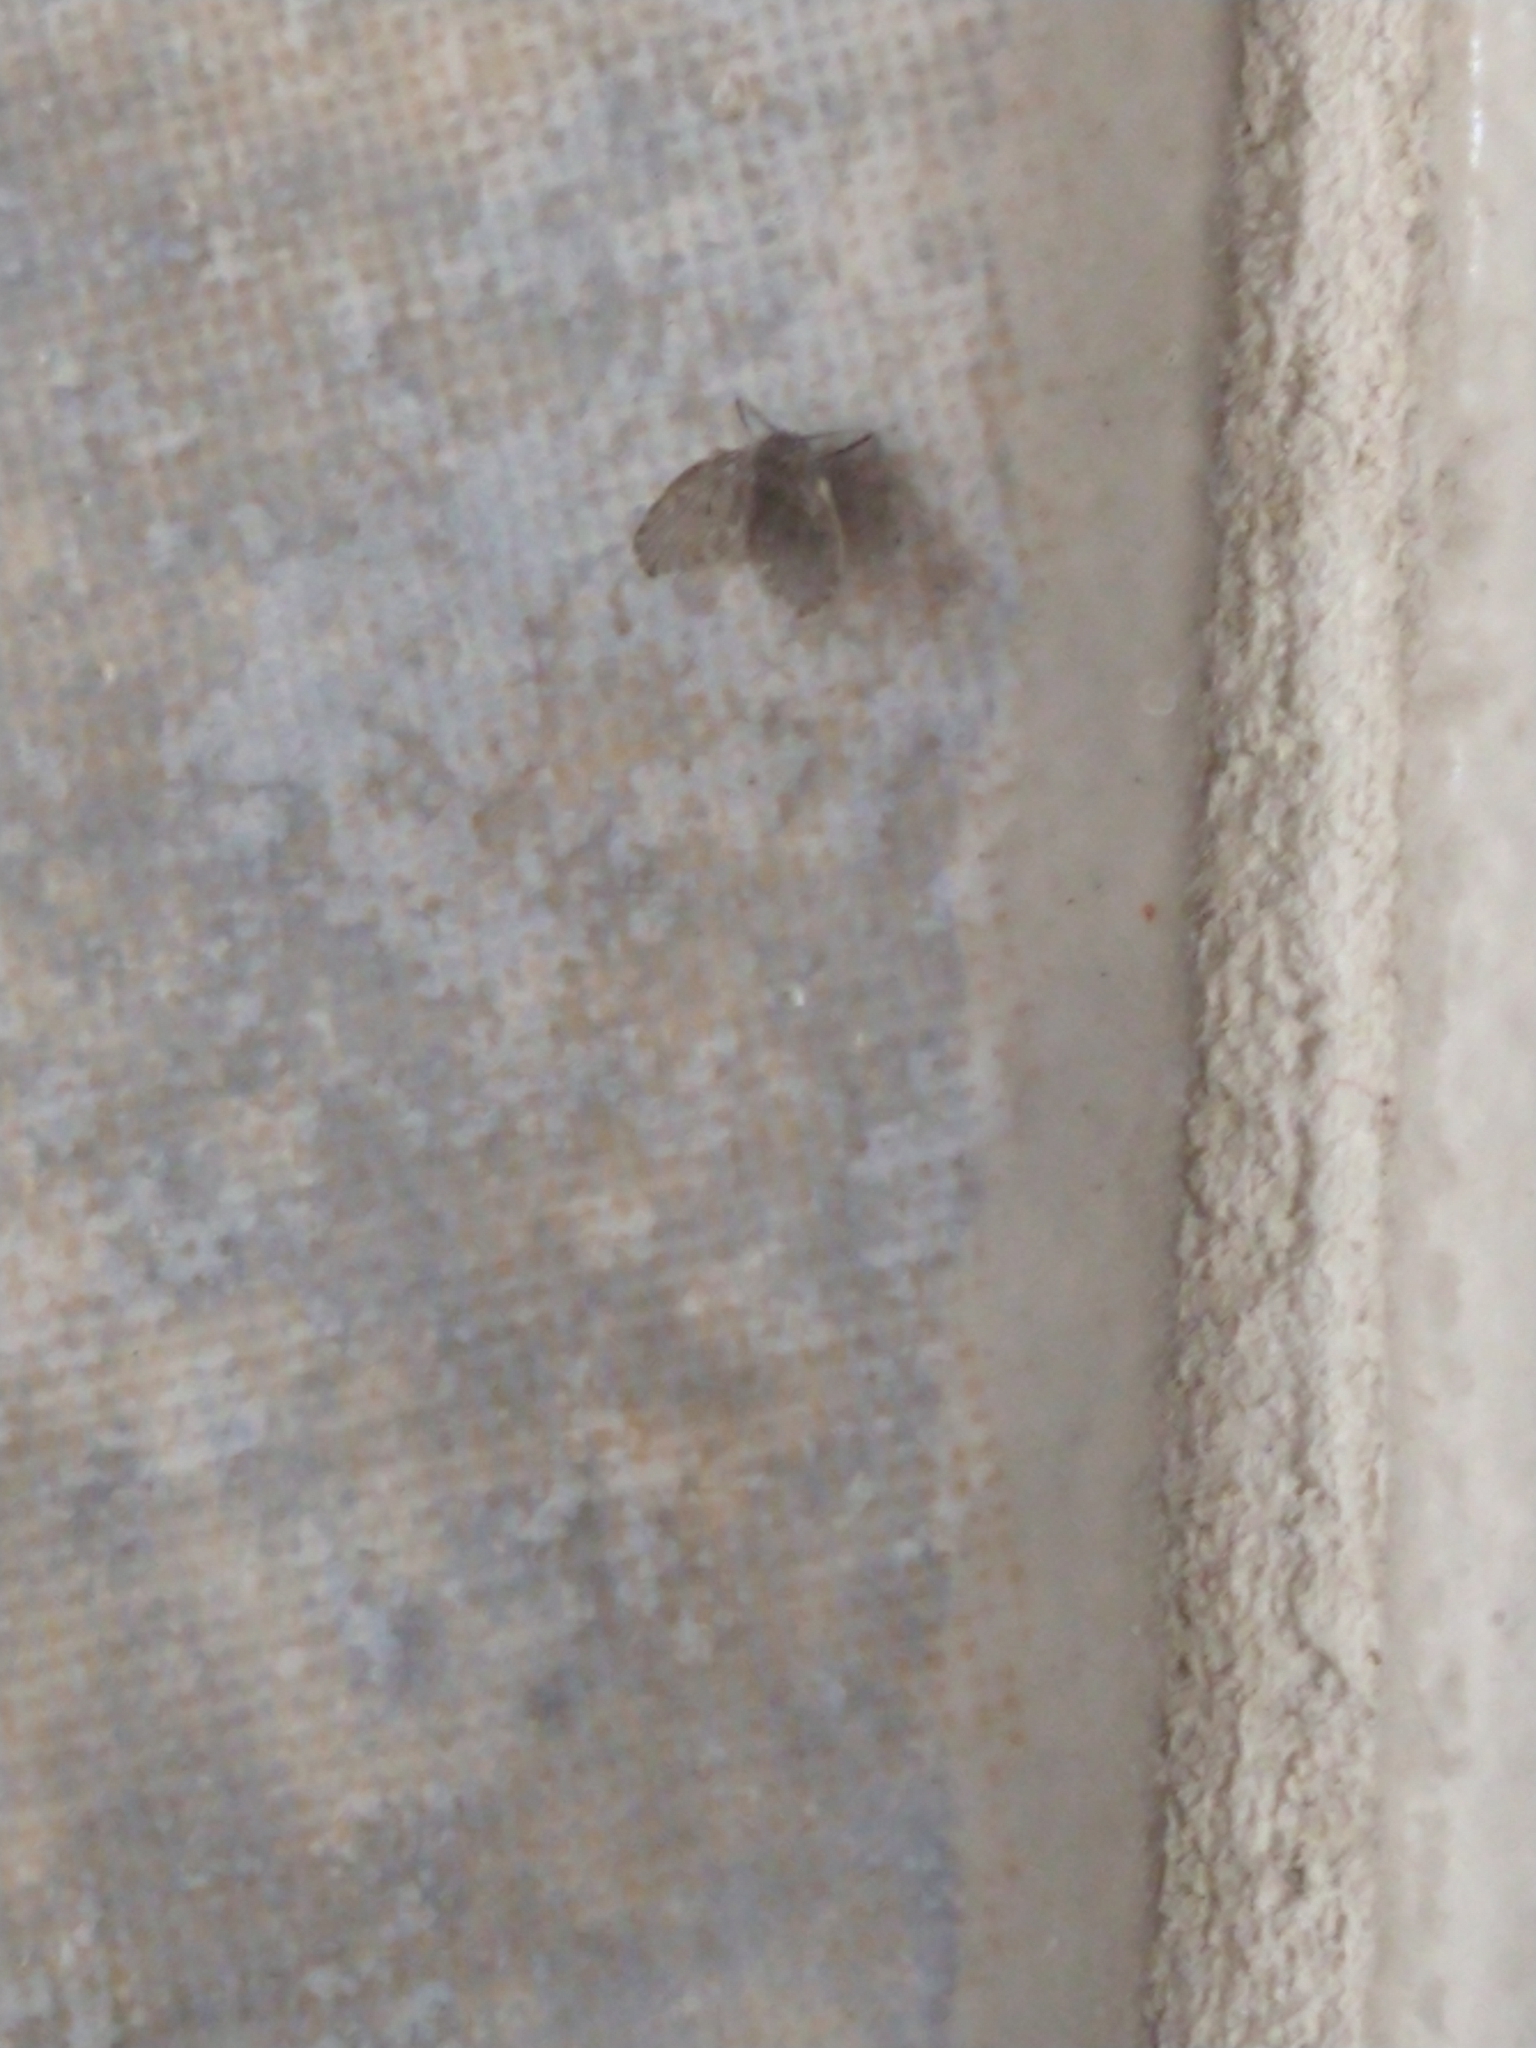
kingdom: Animalia
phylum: Arthropoda
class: Insecta
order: Diptera
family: Psychodidae
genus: Clogmia
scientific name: Clogmia albipunctatus
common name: White-spotted moth fly
